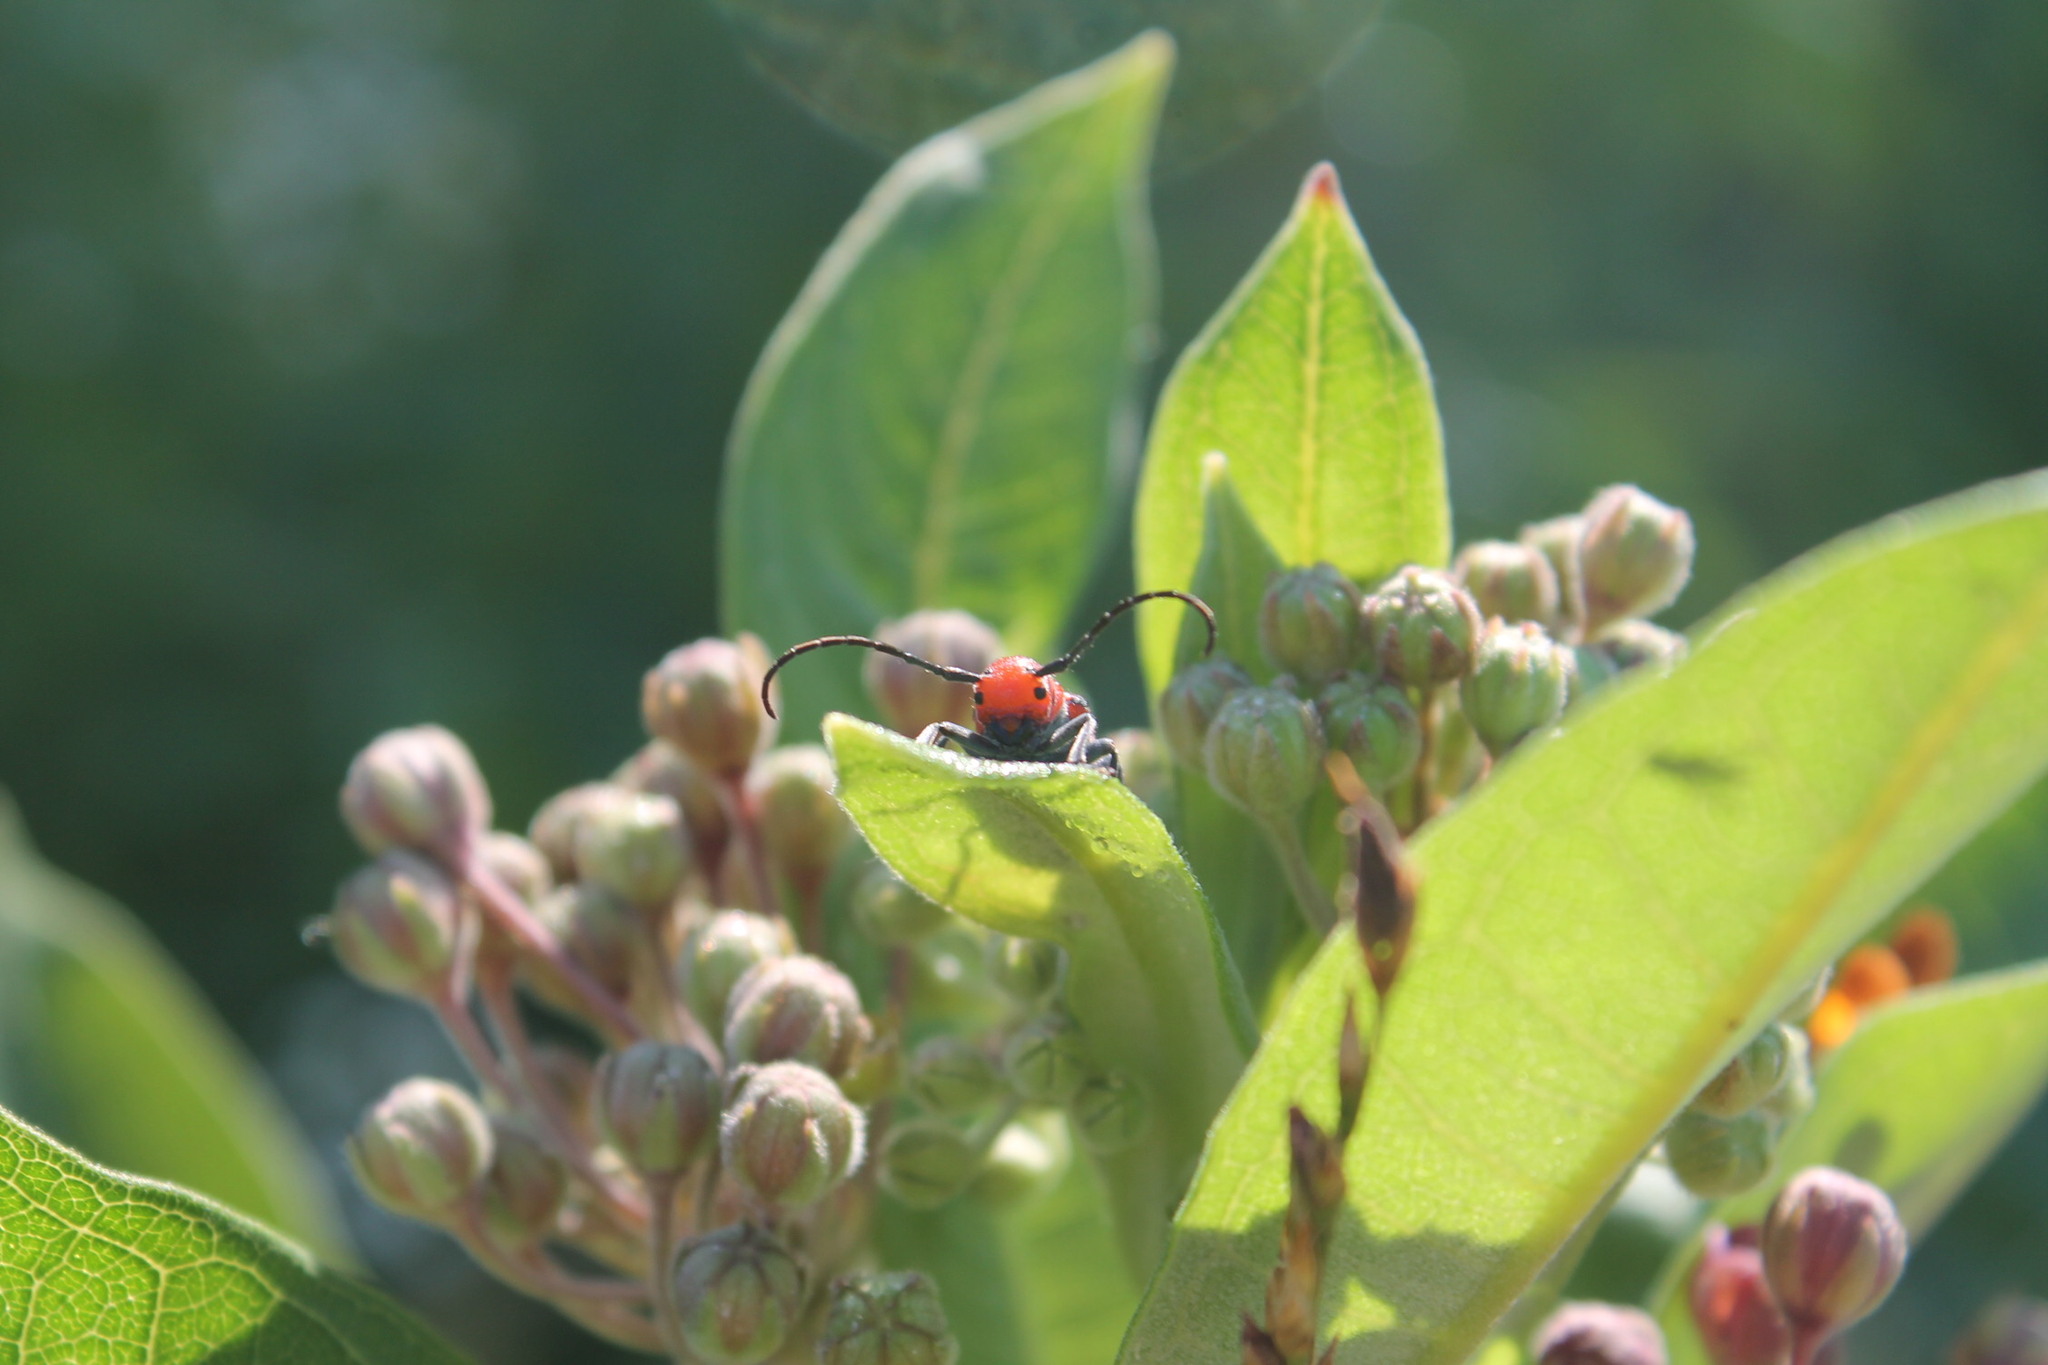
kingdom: Animalia
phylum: Arthropoda
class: Insecta
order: Coleoptera
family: Cerambycidae
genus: Tetraopes
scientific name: Tetraopes tetrophthalmus
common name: Red milkweed beetle
